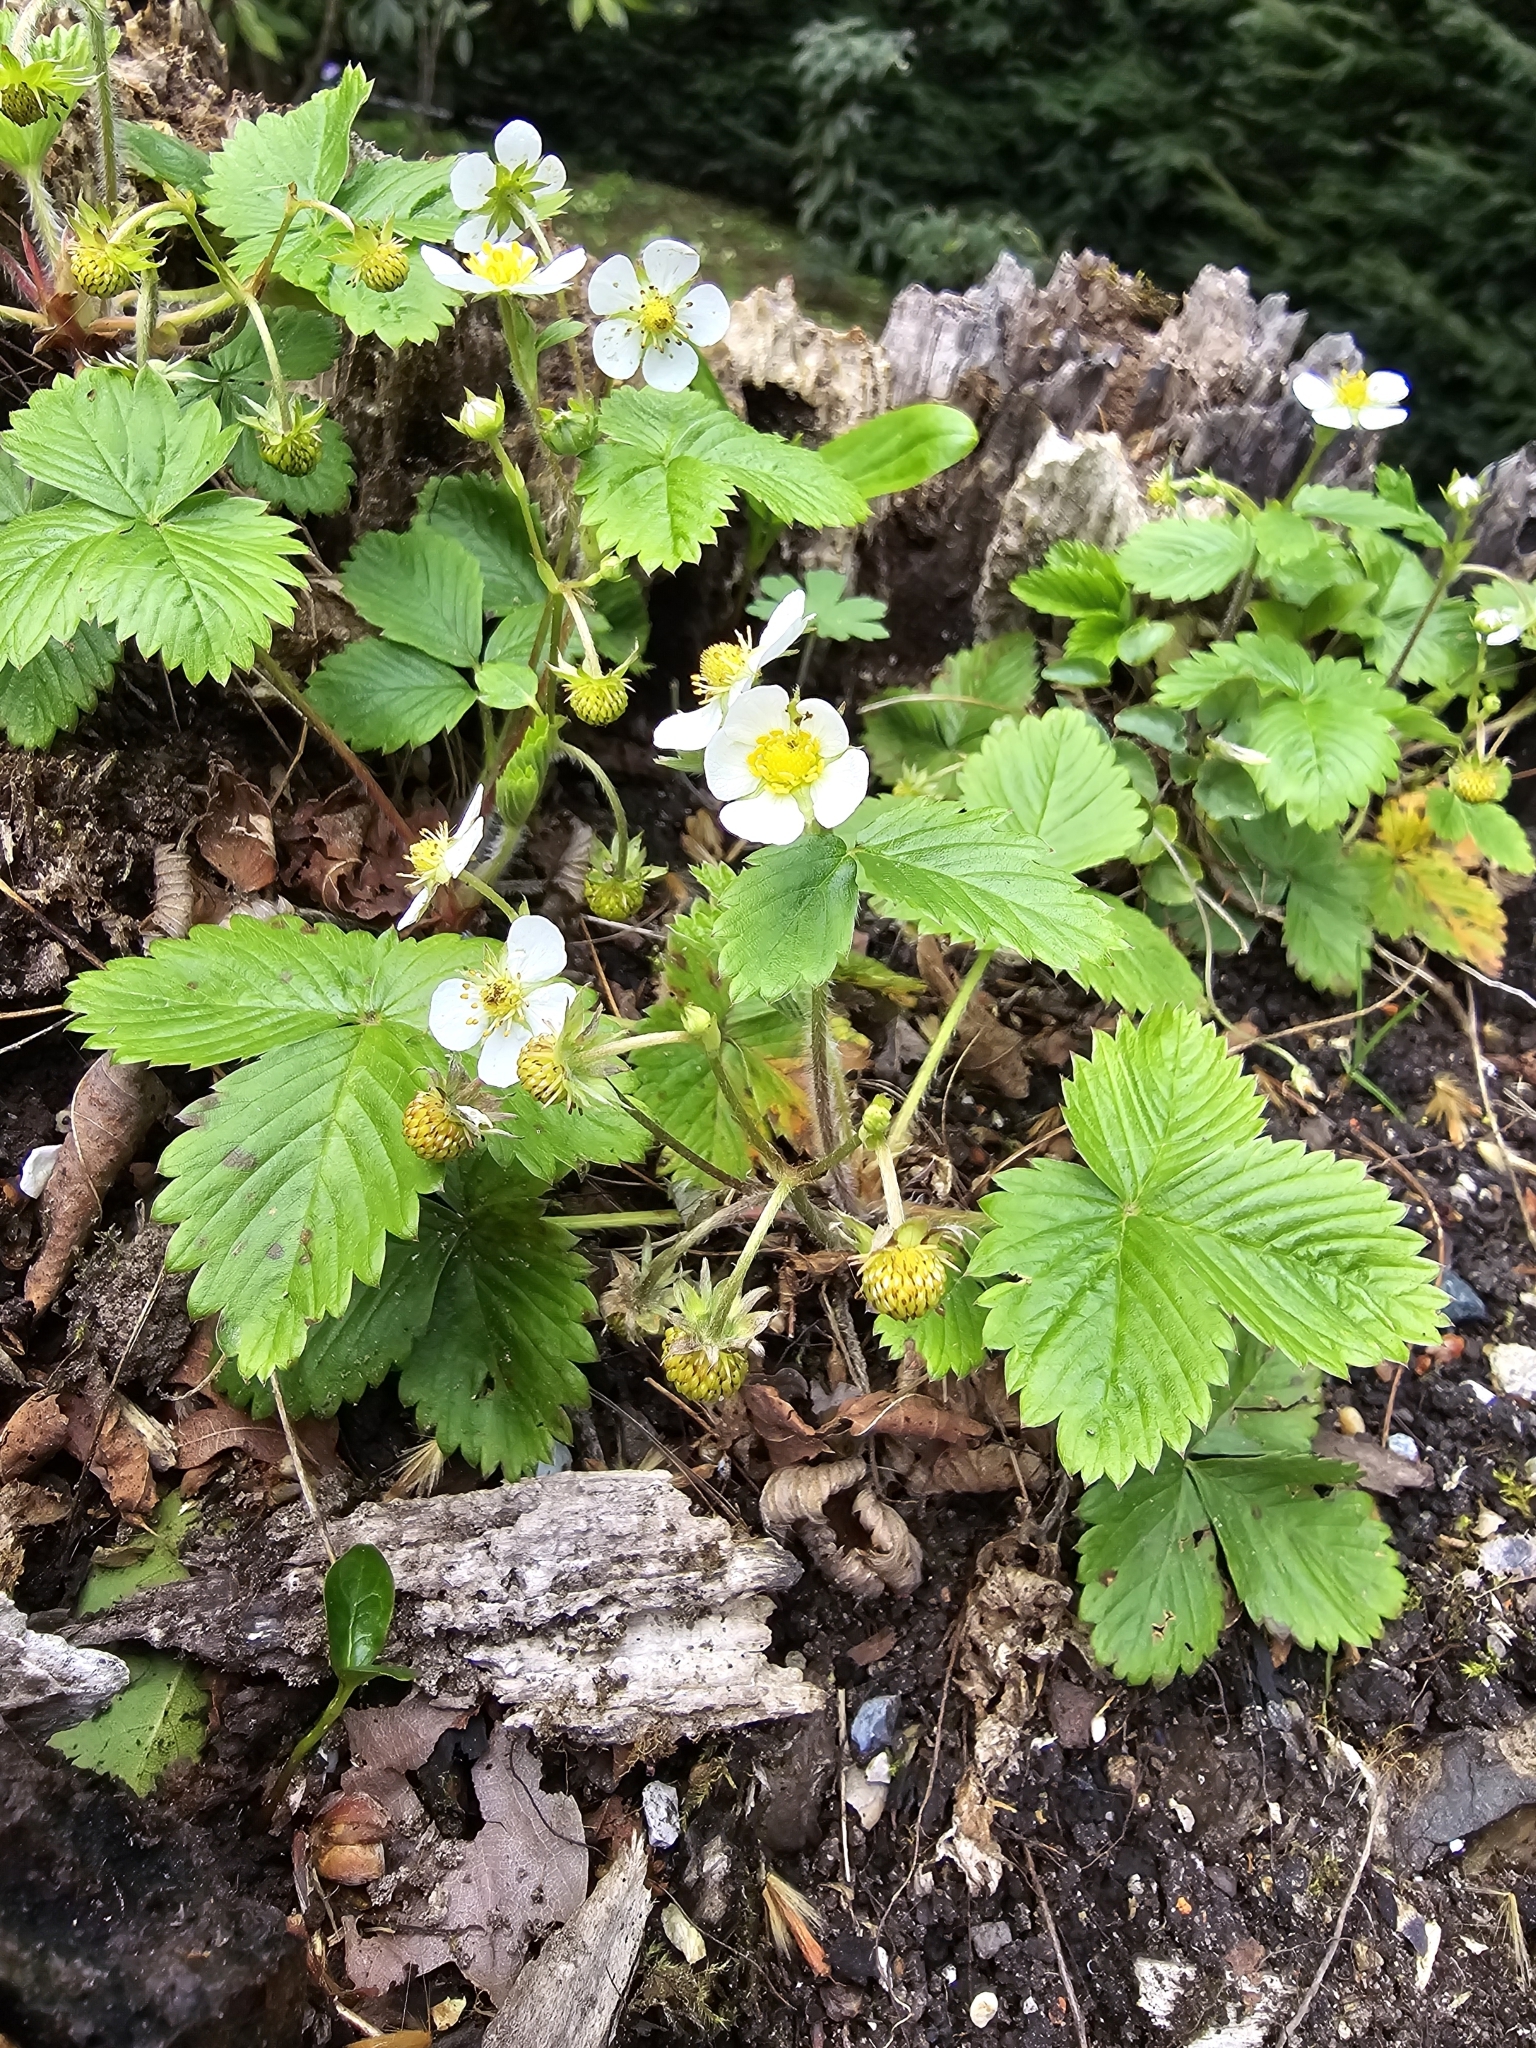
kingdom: Plantae
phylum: Tracheophyta
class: Magnoliopsida
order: Rosales
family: Rosaceae
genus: Fragaria
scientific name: Fragaria vesca
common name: Wild strawberry
